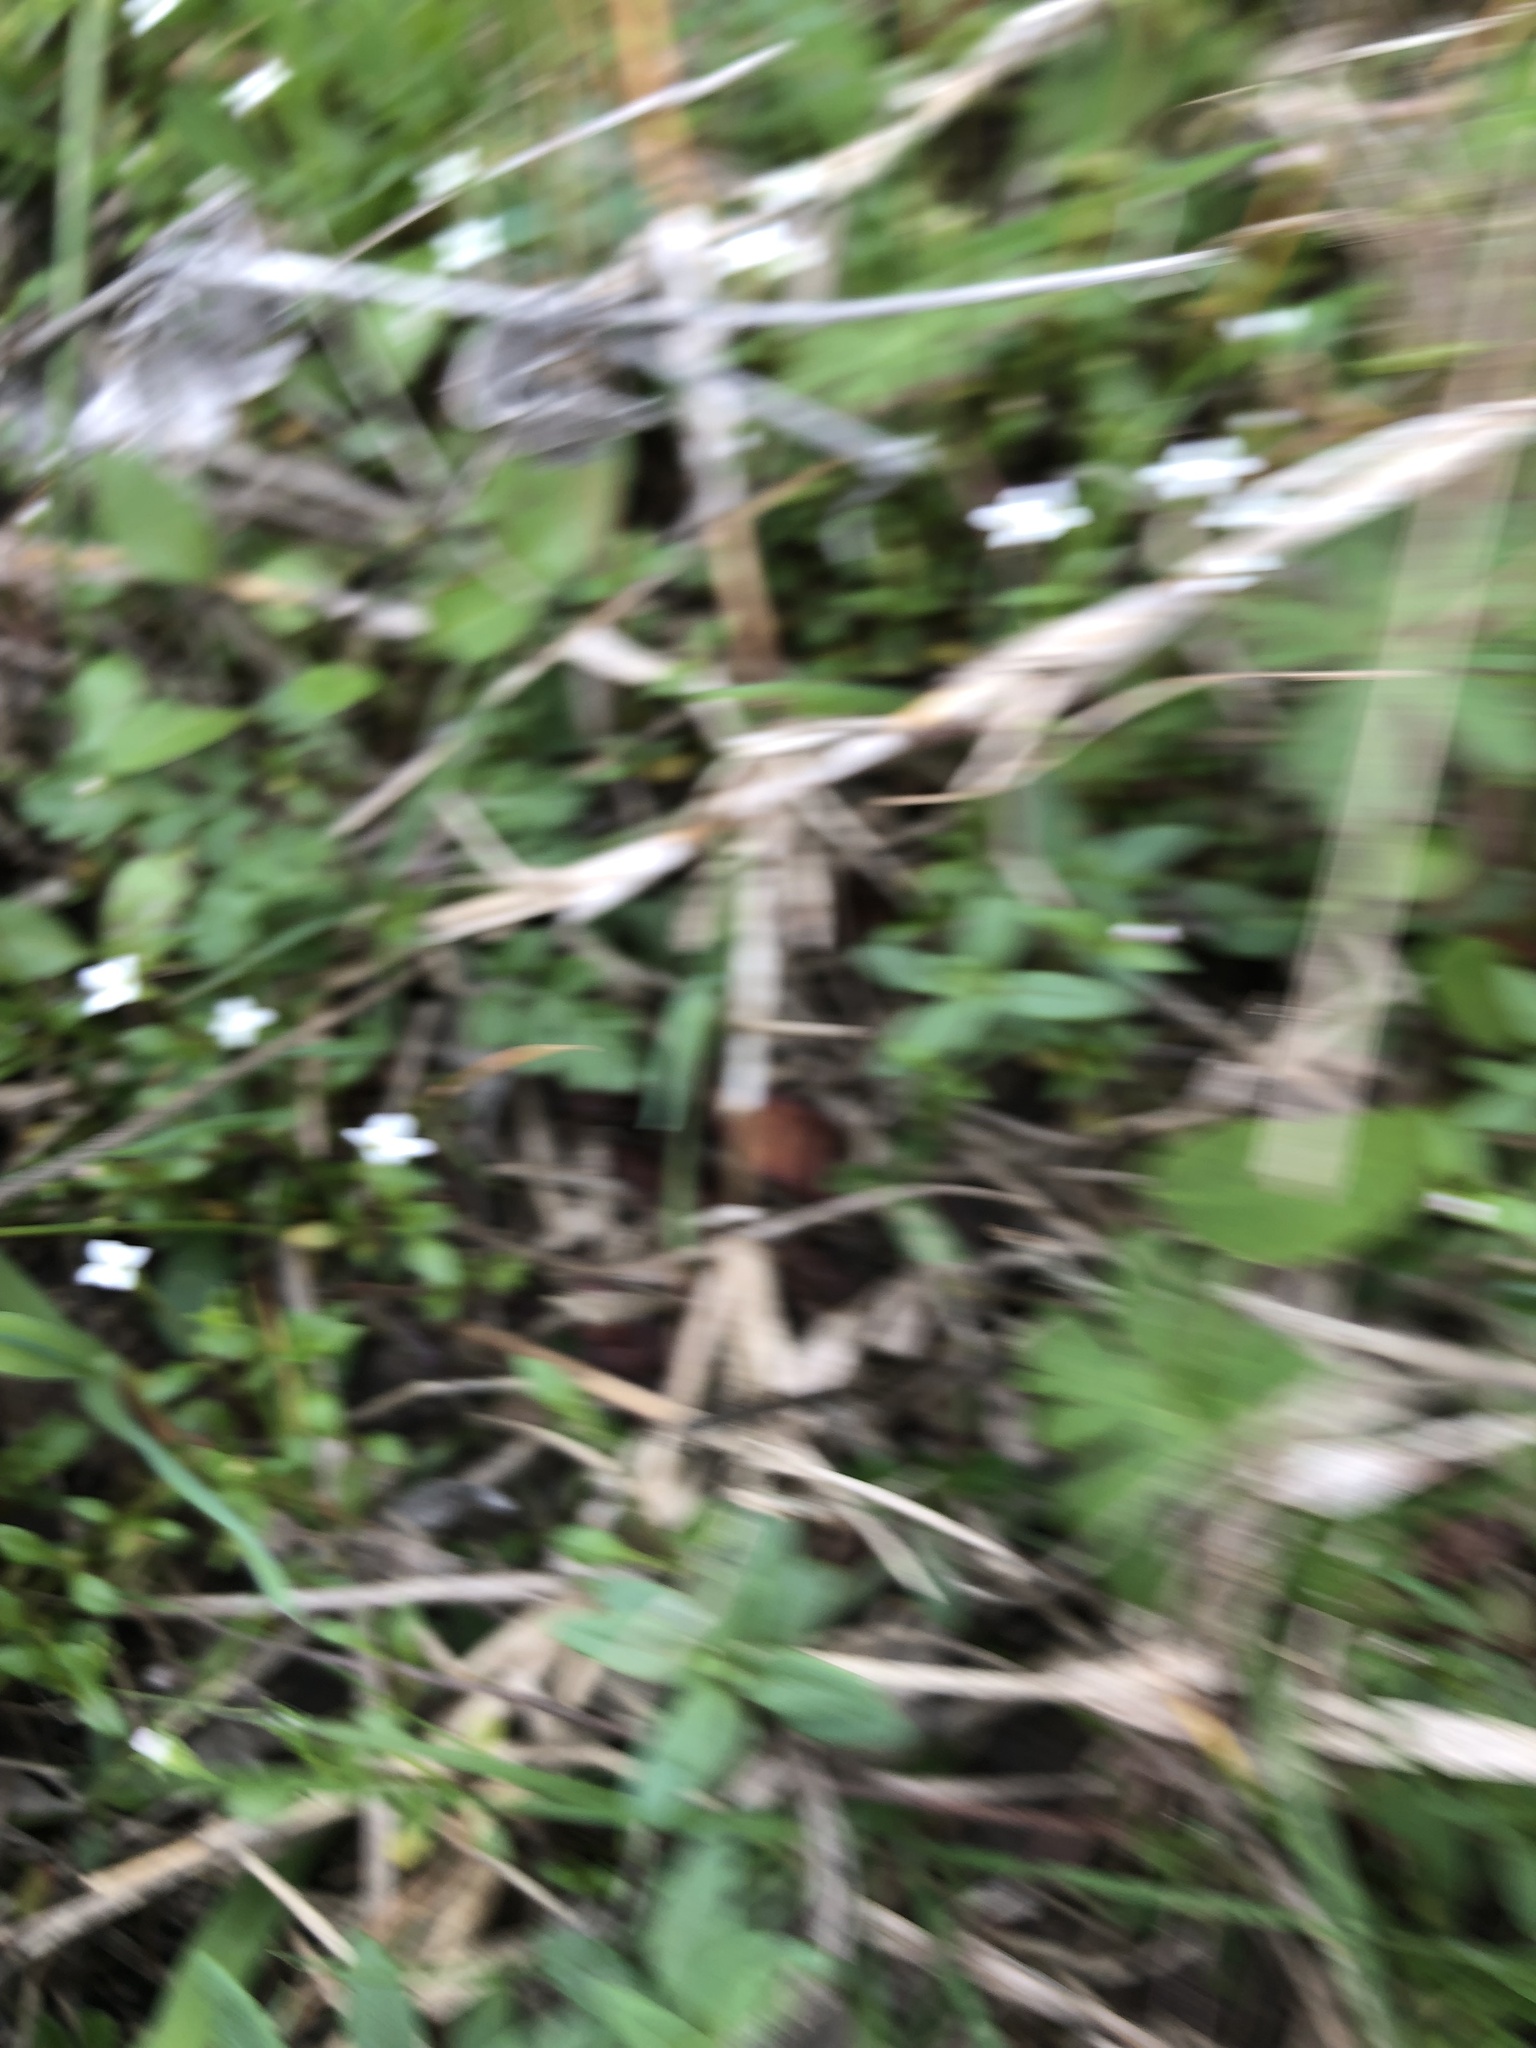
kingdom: Plantae
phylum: Tracheophyta
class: Magnoliopsida
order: Gentianales
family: Rubiaceae
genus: Houstonia
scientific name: Houstonia micrantha
